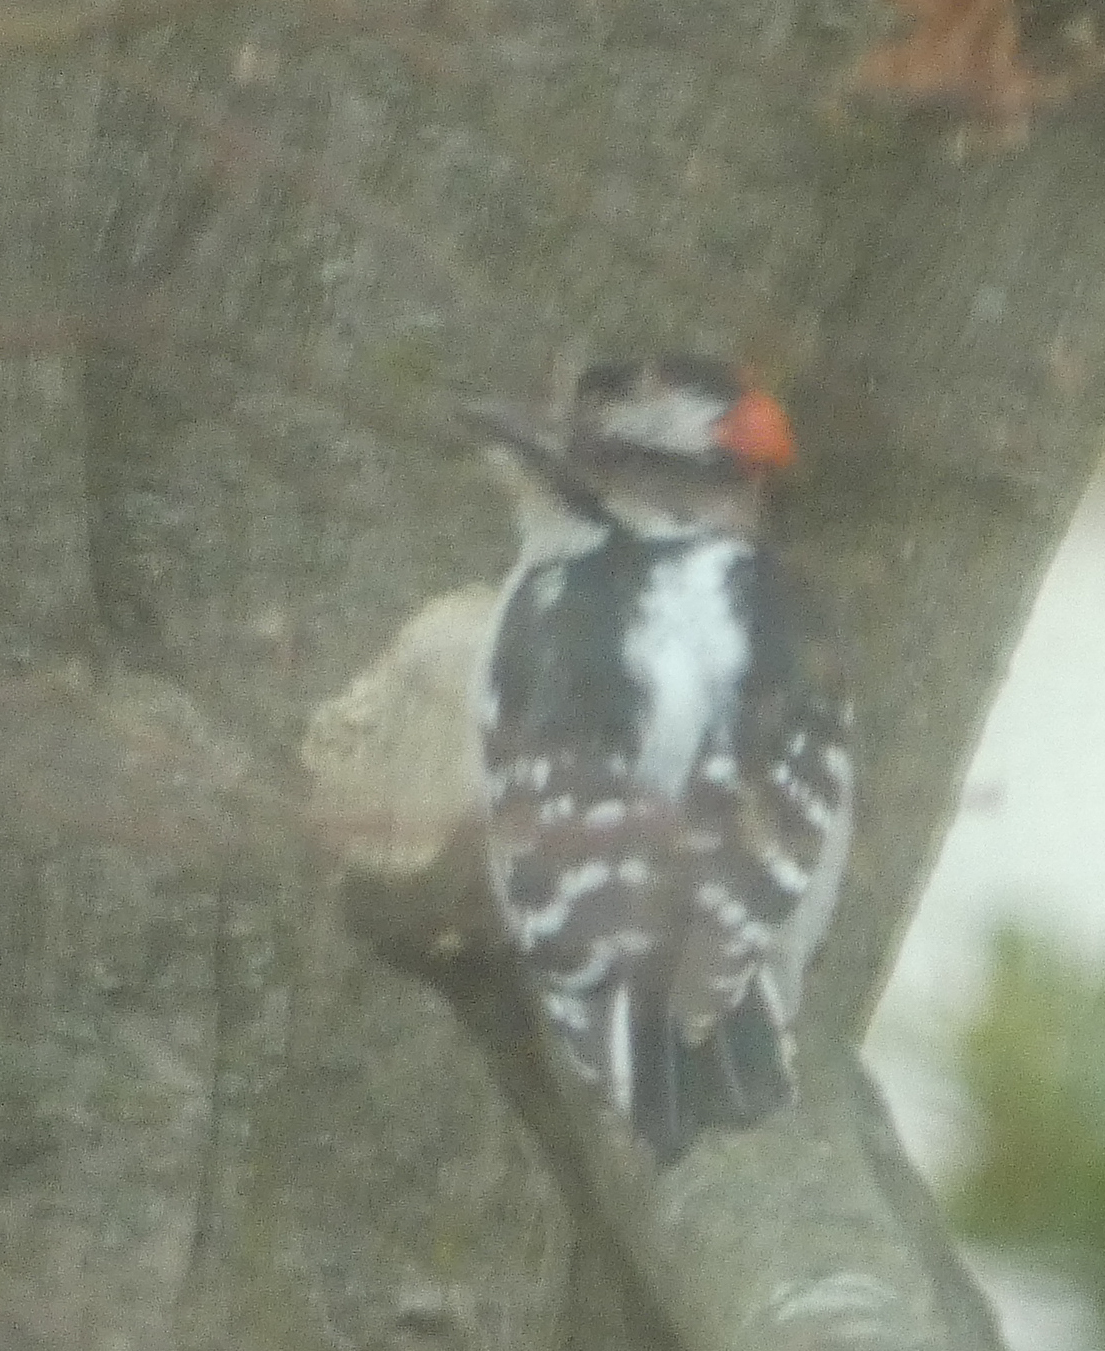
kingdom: Animalia
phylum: Chordata
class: Aves
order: Piciformes
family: Picidae
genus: Dryobates
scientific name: Dryobates pubescens
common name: Downy woodpecker
